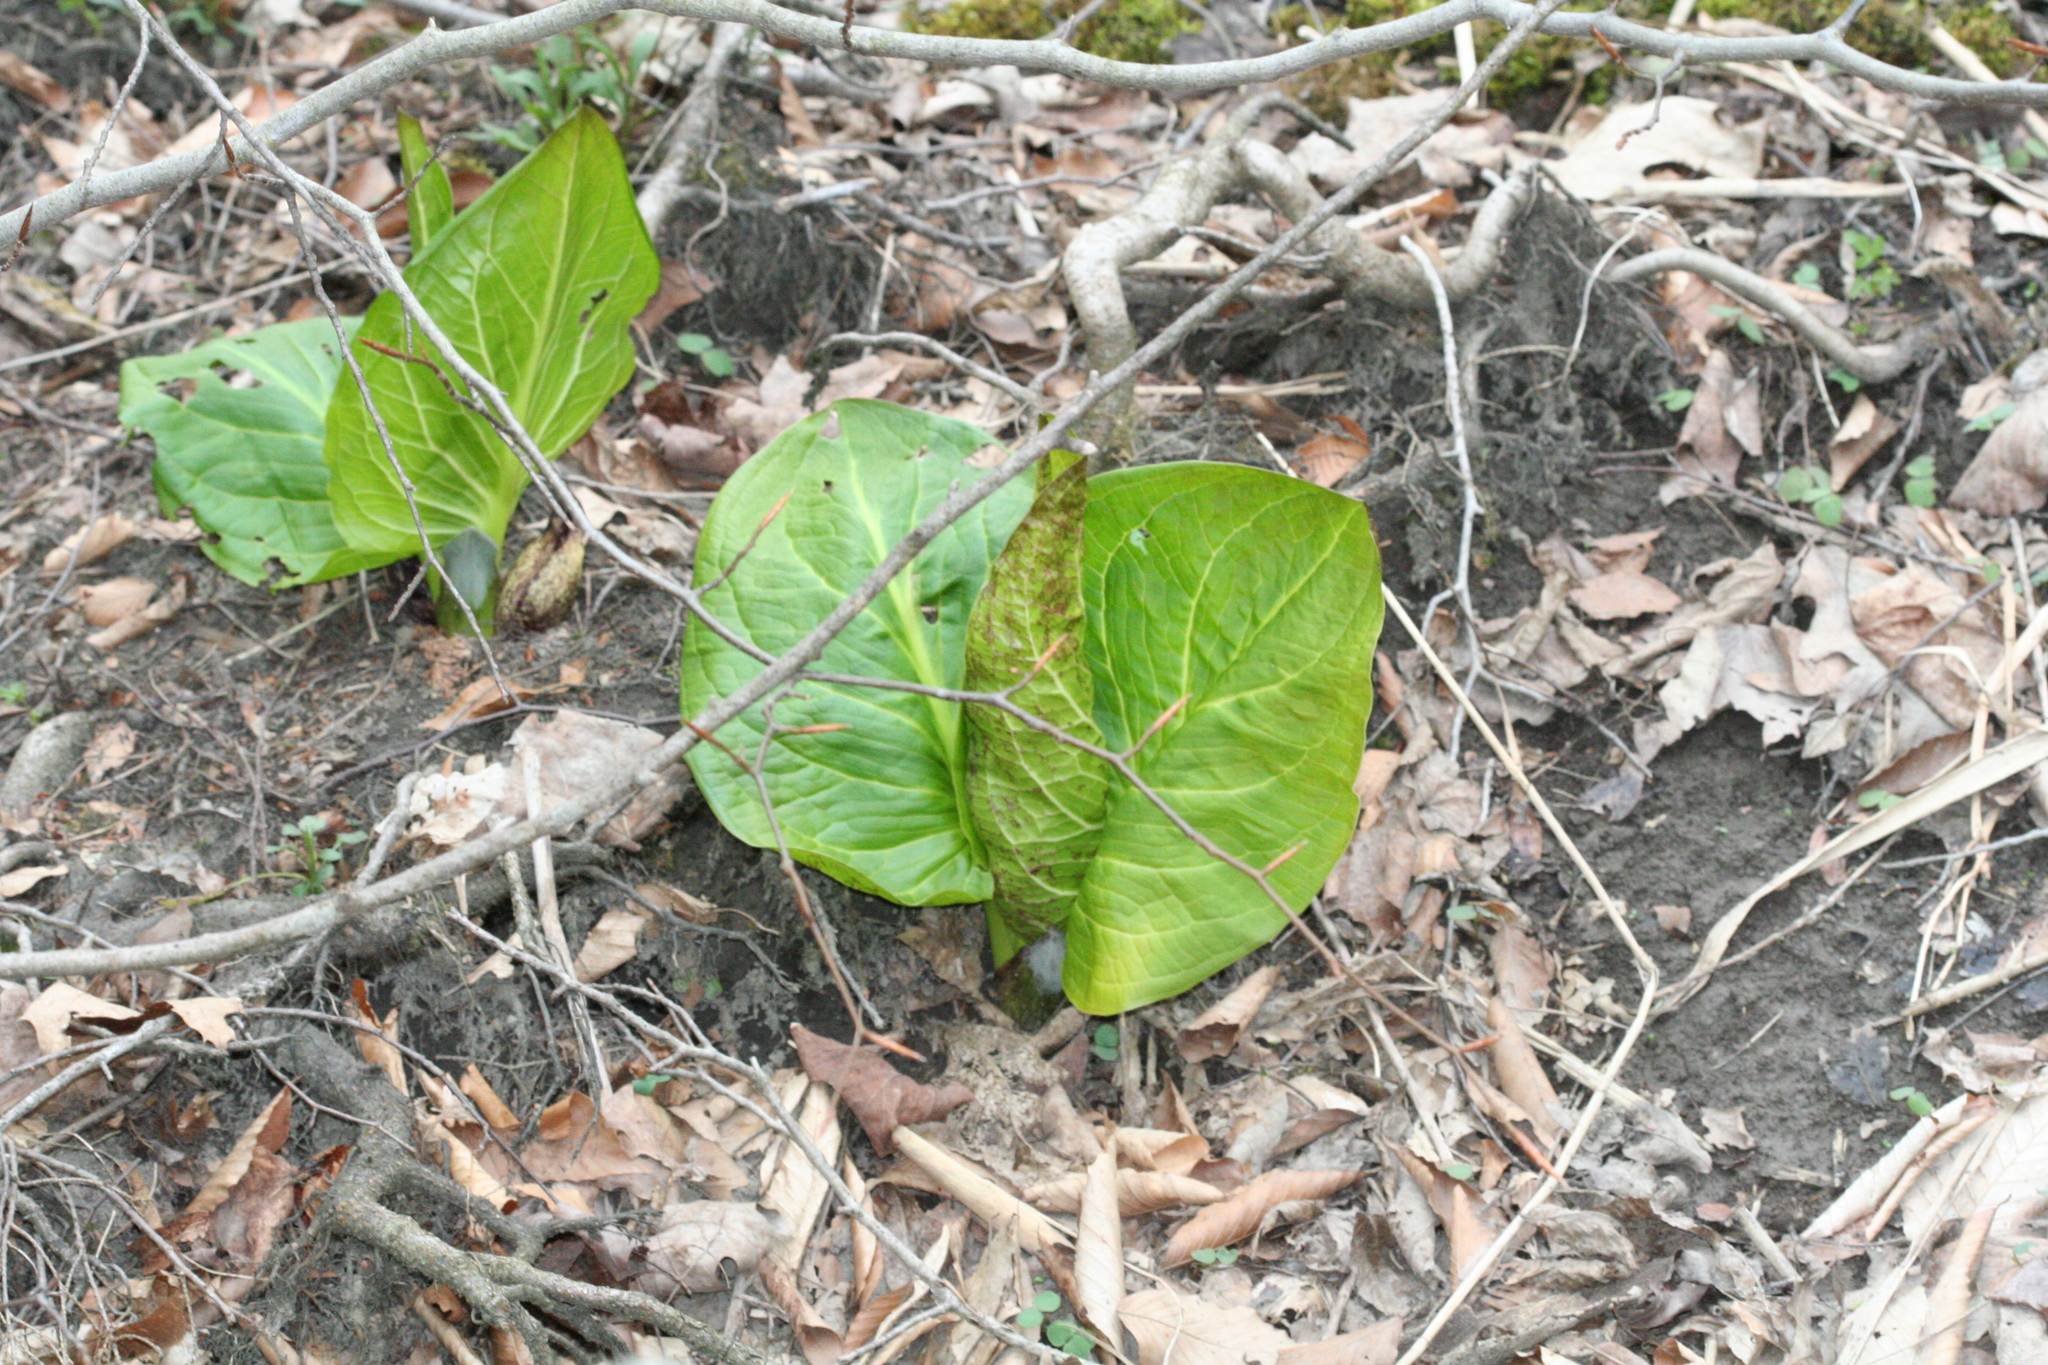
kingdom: Plantae
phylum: Tracheophyta
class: Liliopsida
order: Alismatales
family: Araceae
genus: Symplocarpus
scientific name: Symplocarpus foetidus
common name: Eastern skunk cabbage
